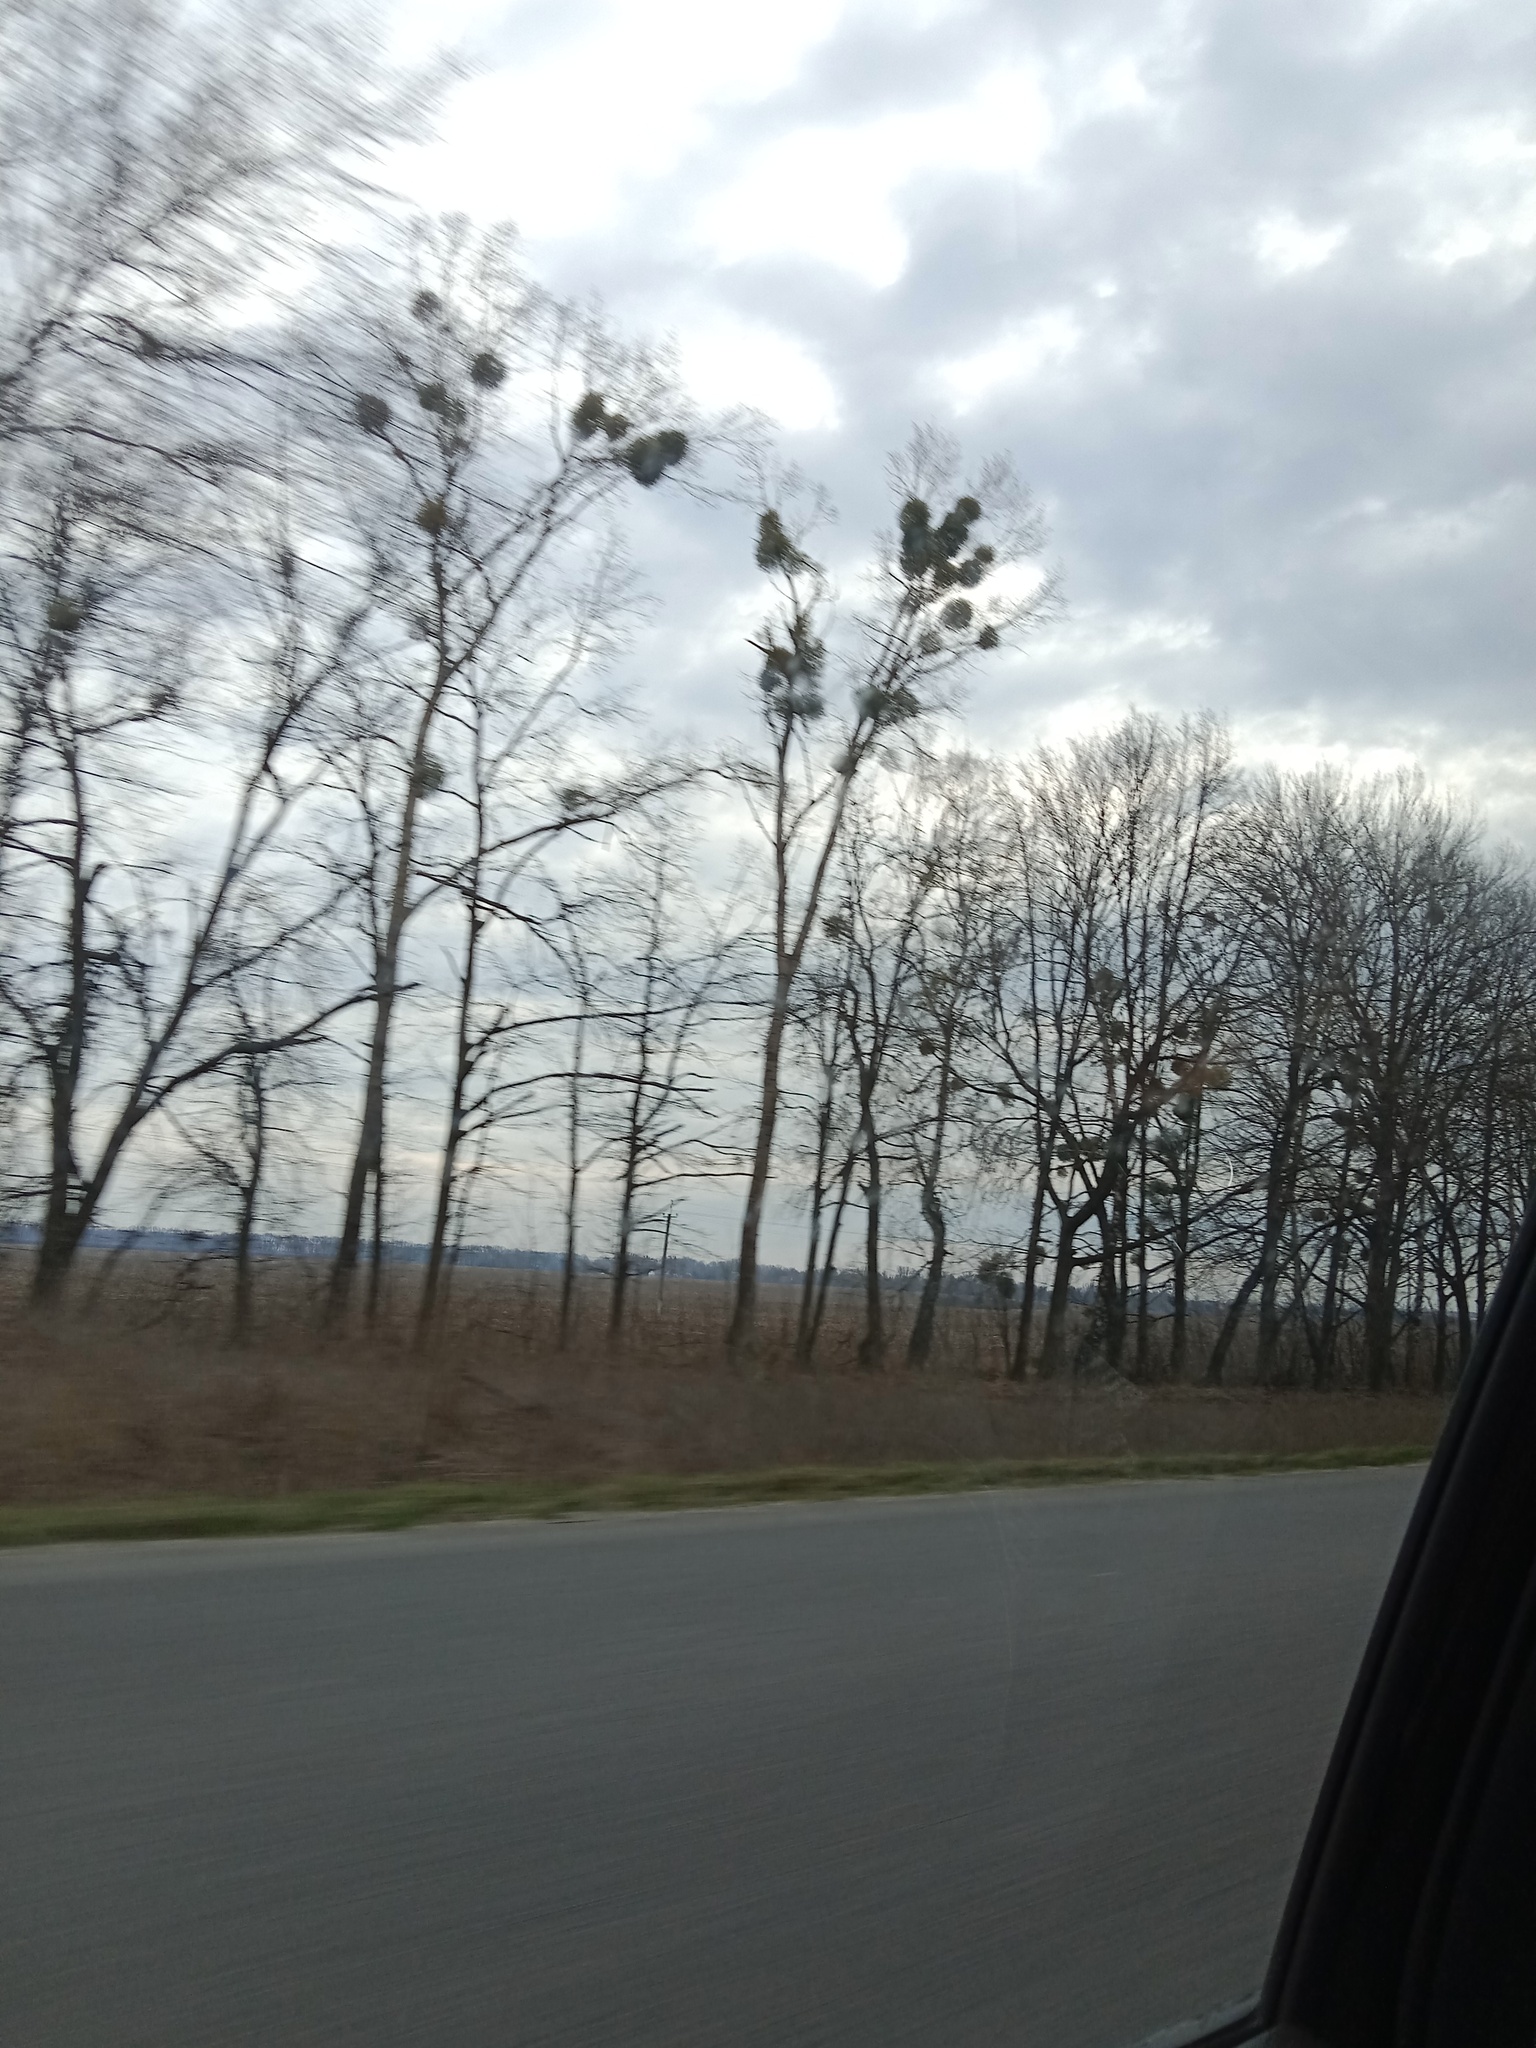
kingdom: Plantae
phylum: Tracheophyta
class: Magnoliopsida
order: Santalales
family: Viscaceae
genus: Viscum
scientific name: Viscum album
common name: Mistletoe
